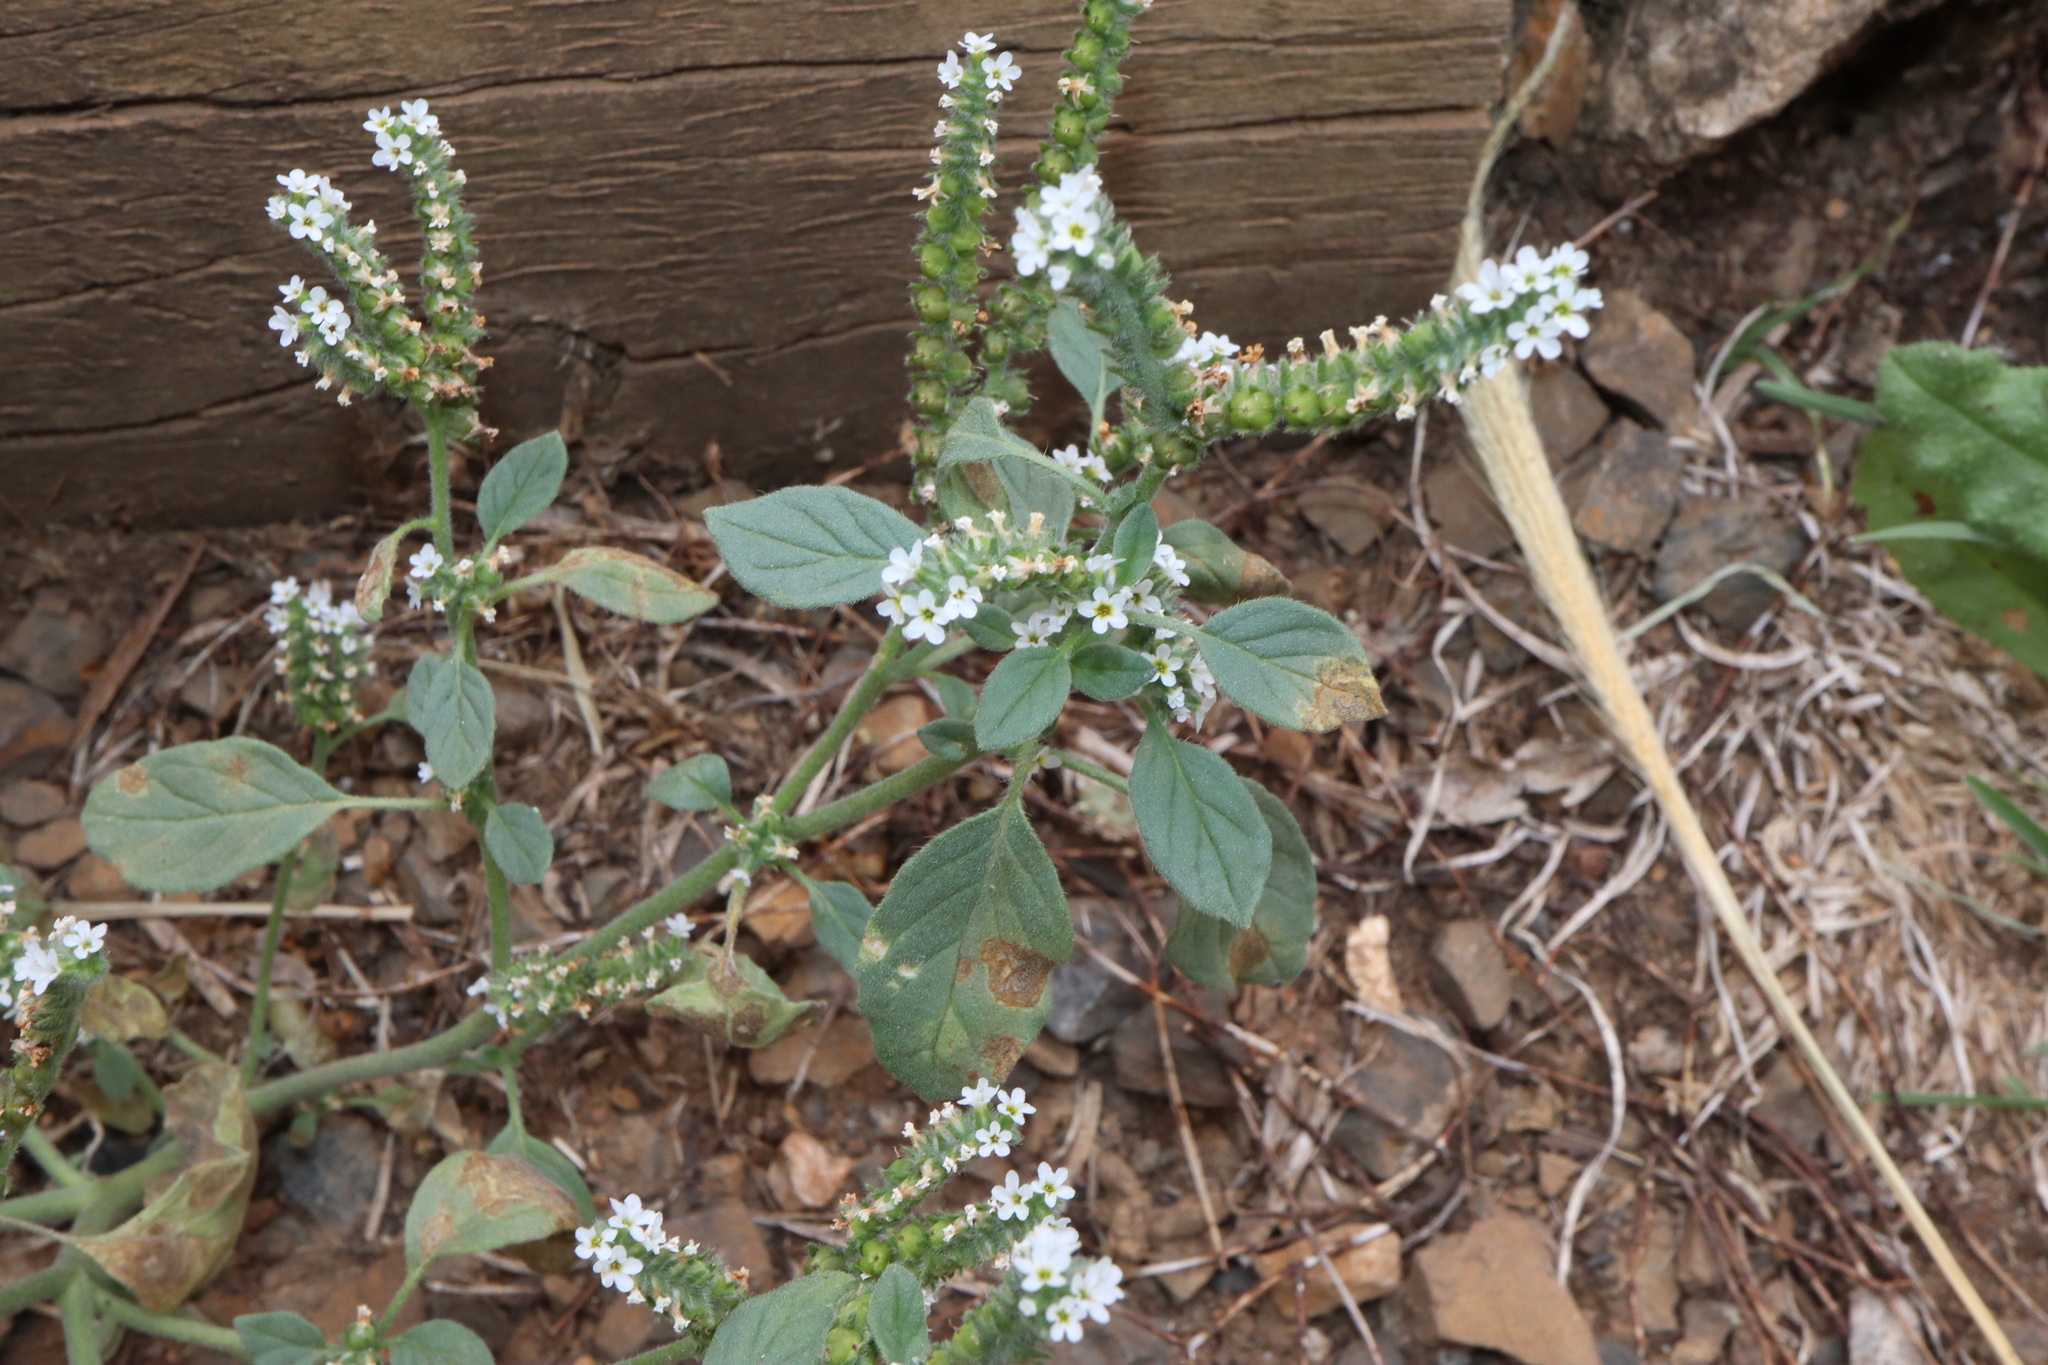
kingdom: Plantae
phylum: Tracheophyta
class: Magnoliopsida
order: Boraginales
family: Heliotropiaceae
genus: Heliotropium
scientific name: Heliotropium europaeum
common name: European heliotrope
